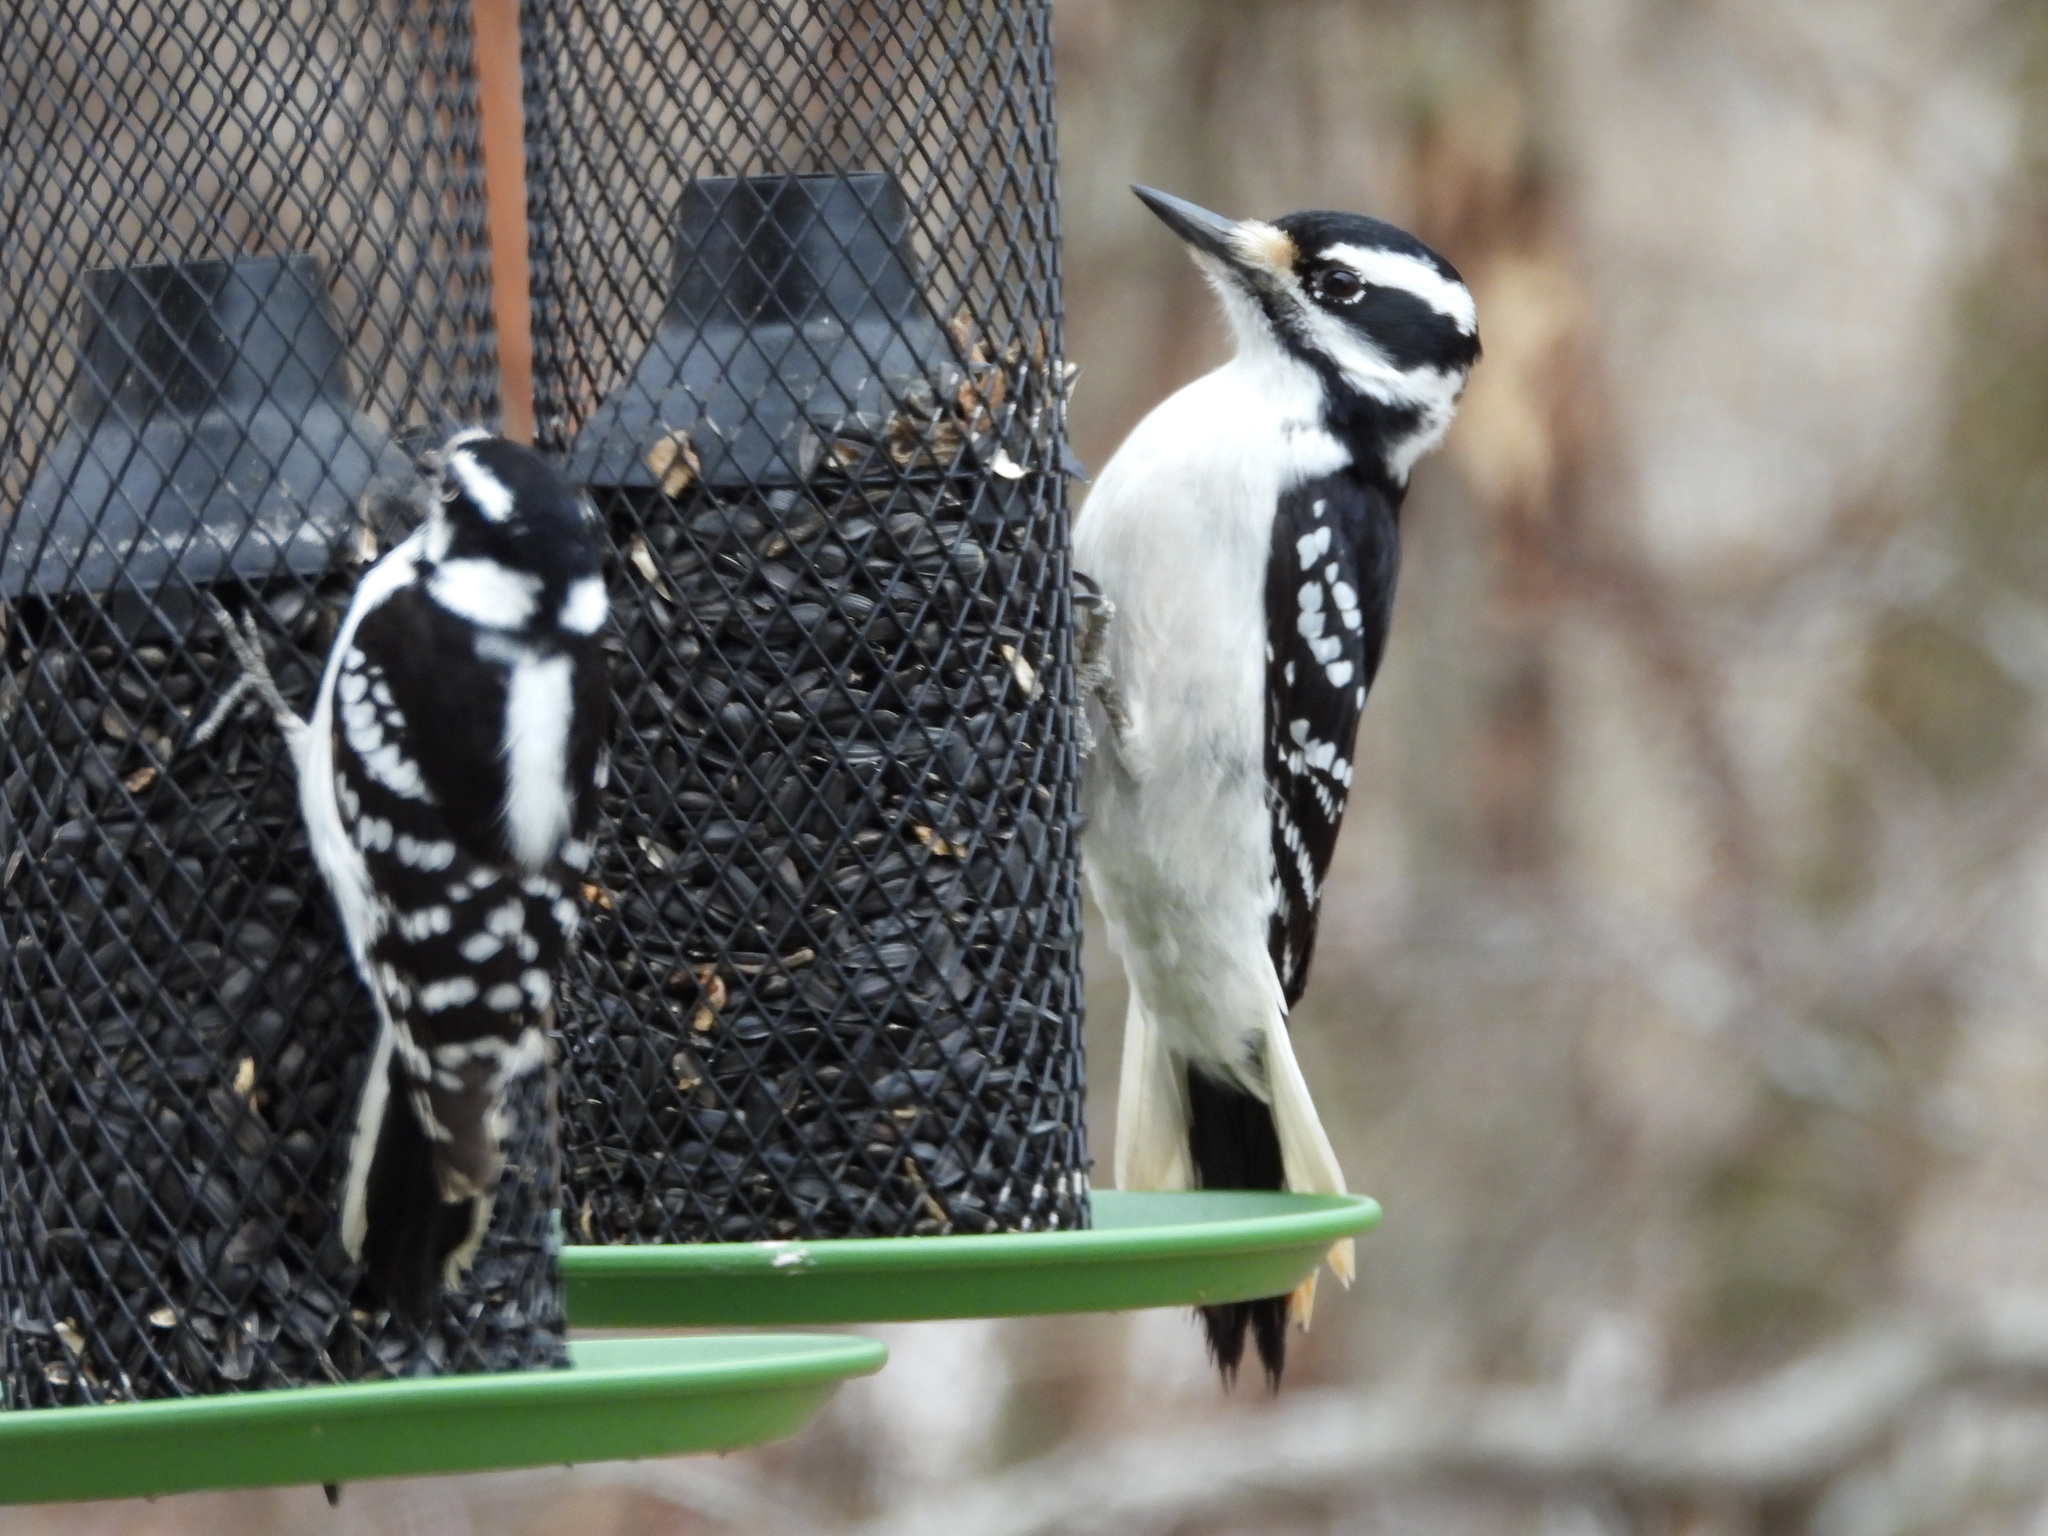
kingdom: Animalia
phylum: Chordata
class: Aves
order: Piciformes
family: Picidae
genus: Leuconotopicus
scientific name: Leuconotopicus villosus
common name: Hairy woodpecker
